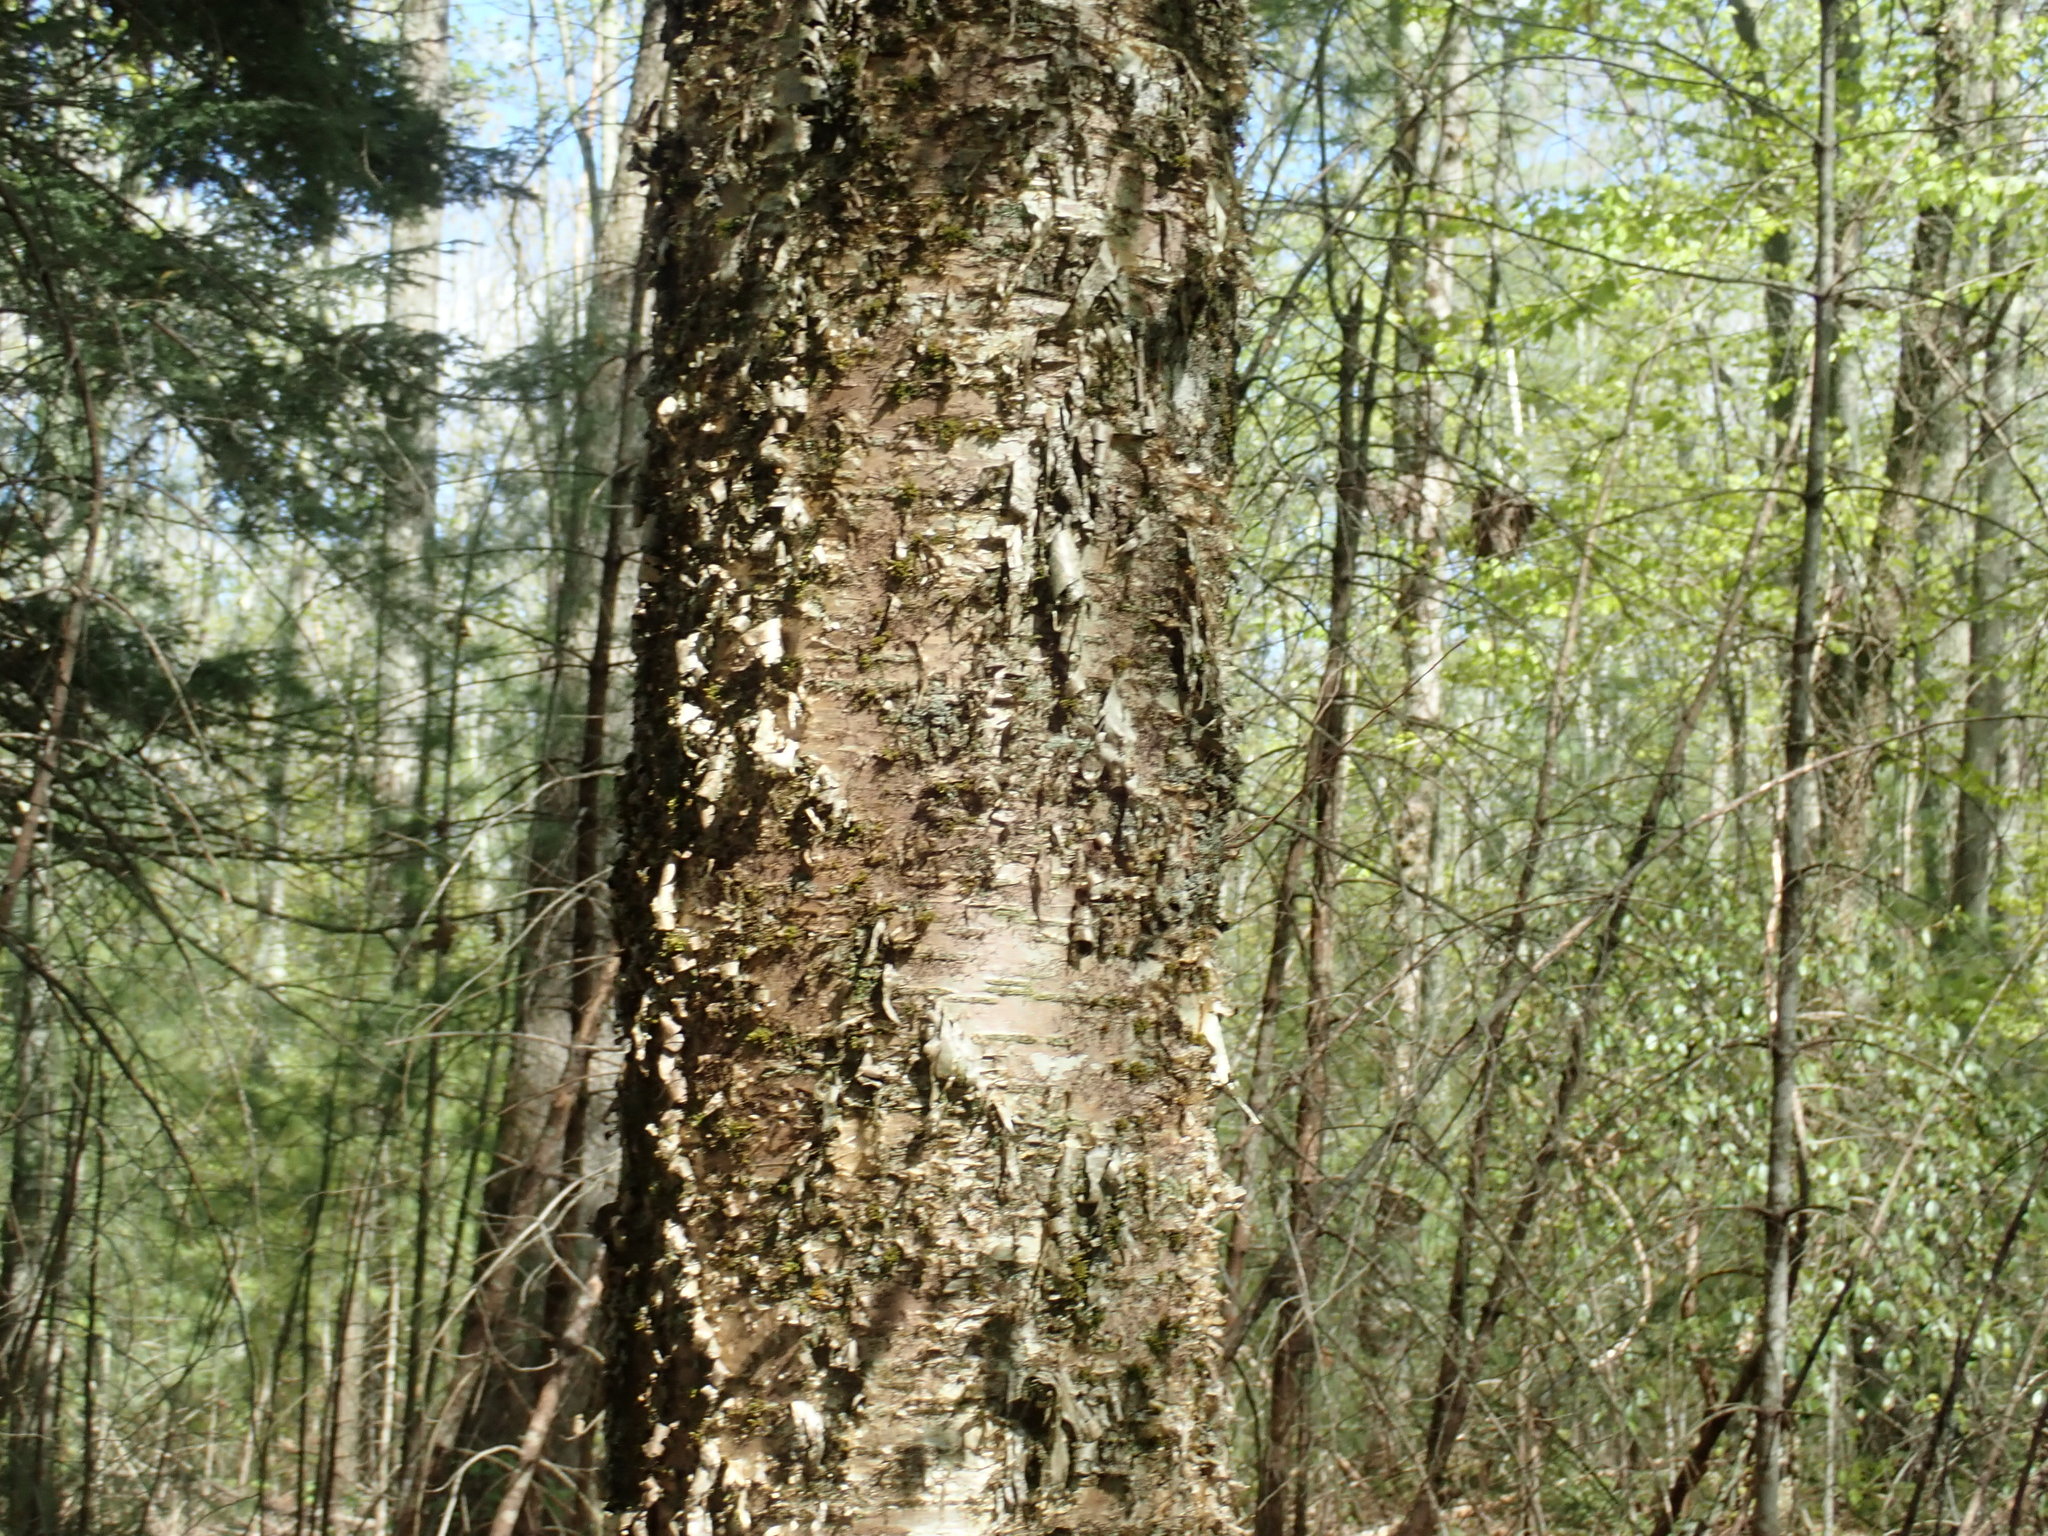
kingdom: Plantae
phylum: Tracheophyta
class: Magnoliopsida
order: Fagales
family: Betulaceae
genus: Betula
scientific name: Betula alleghaniensis
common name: Yellow birch
